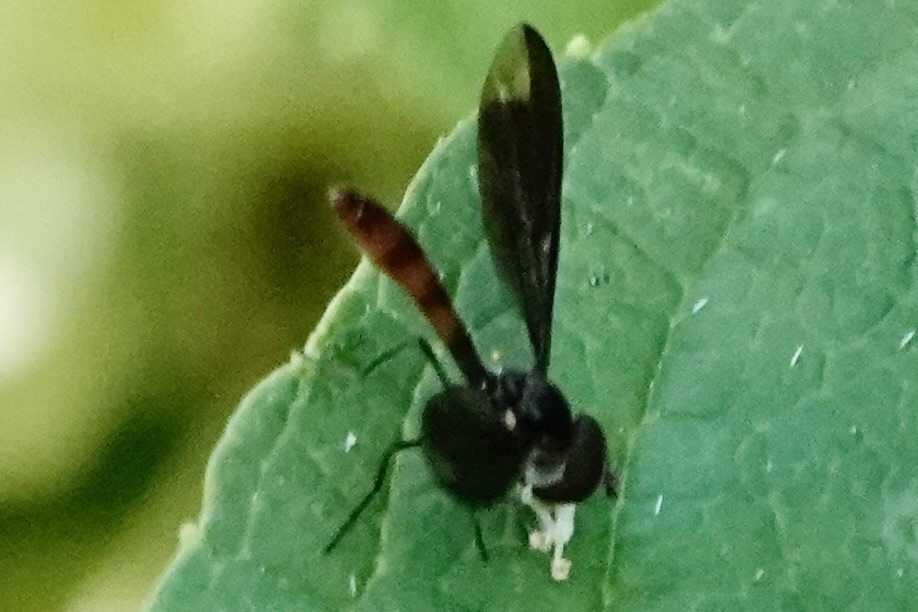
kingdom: Animalia
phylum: Arthropoda
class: Insecta
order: Diptera
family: Syrphidae
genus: Ocyptamus
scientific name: Ocyptamus fuscipennis
